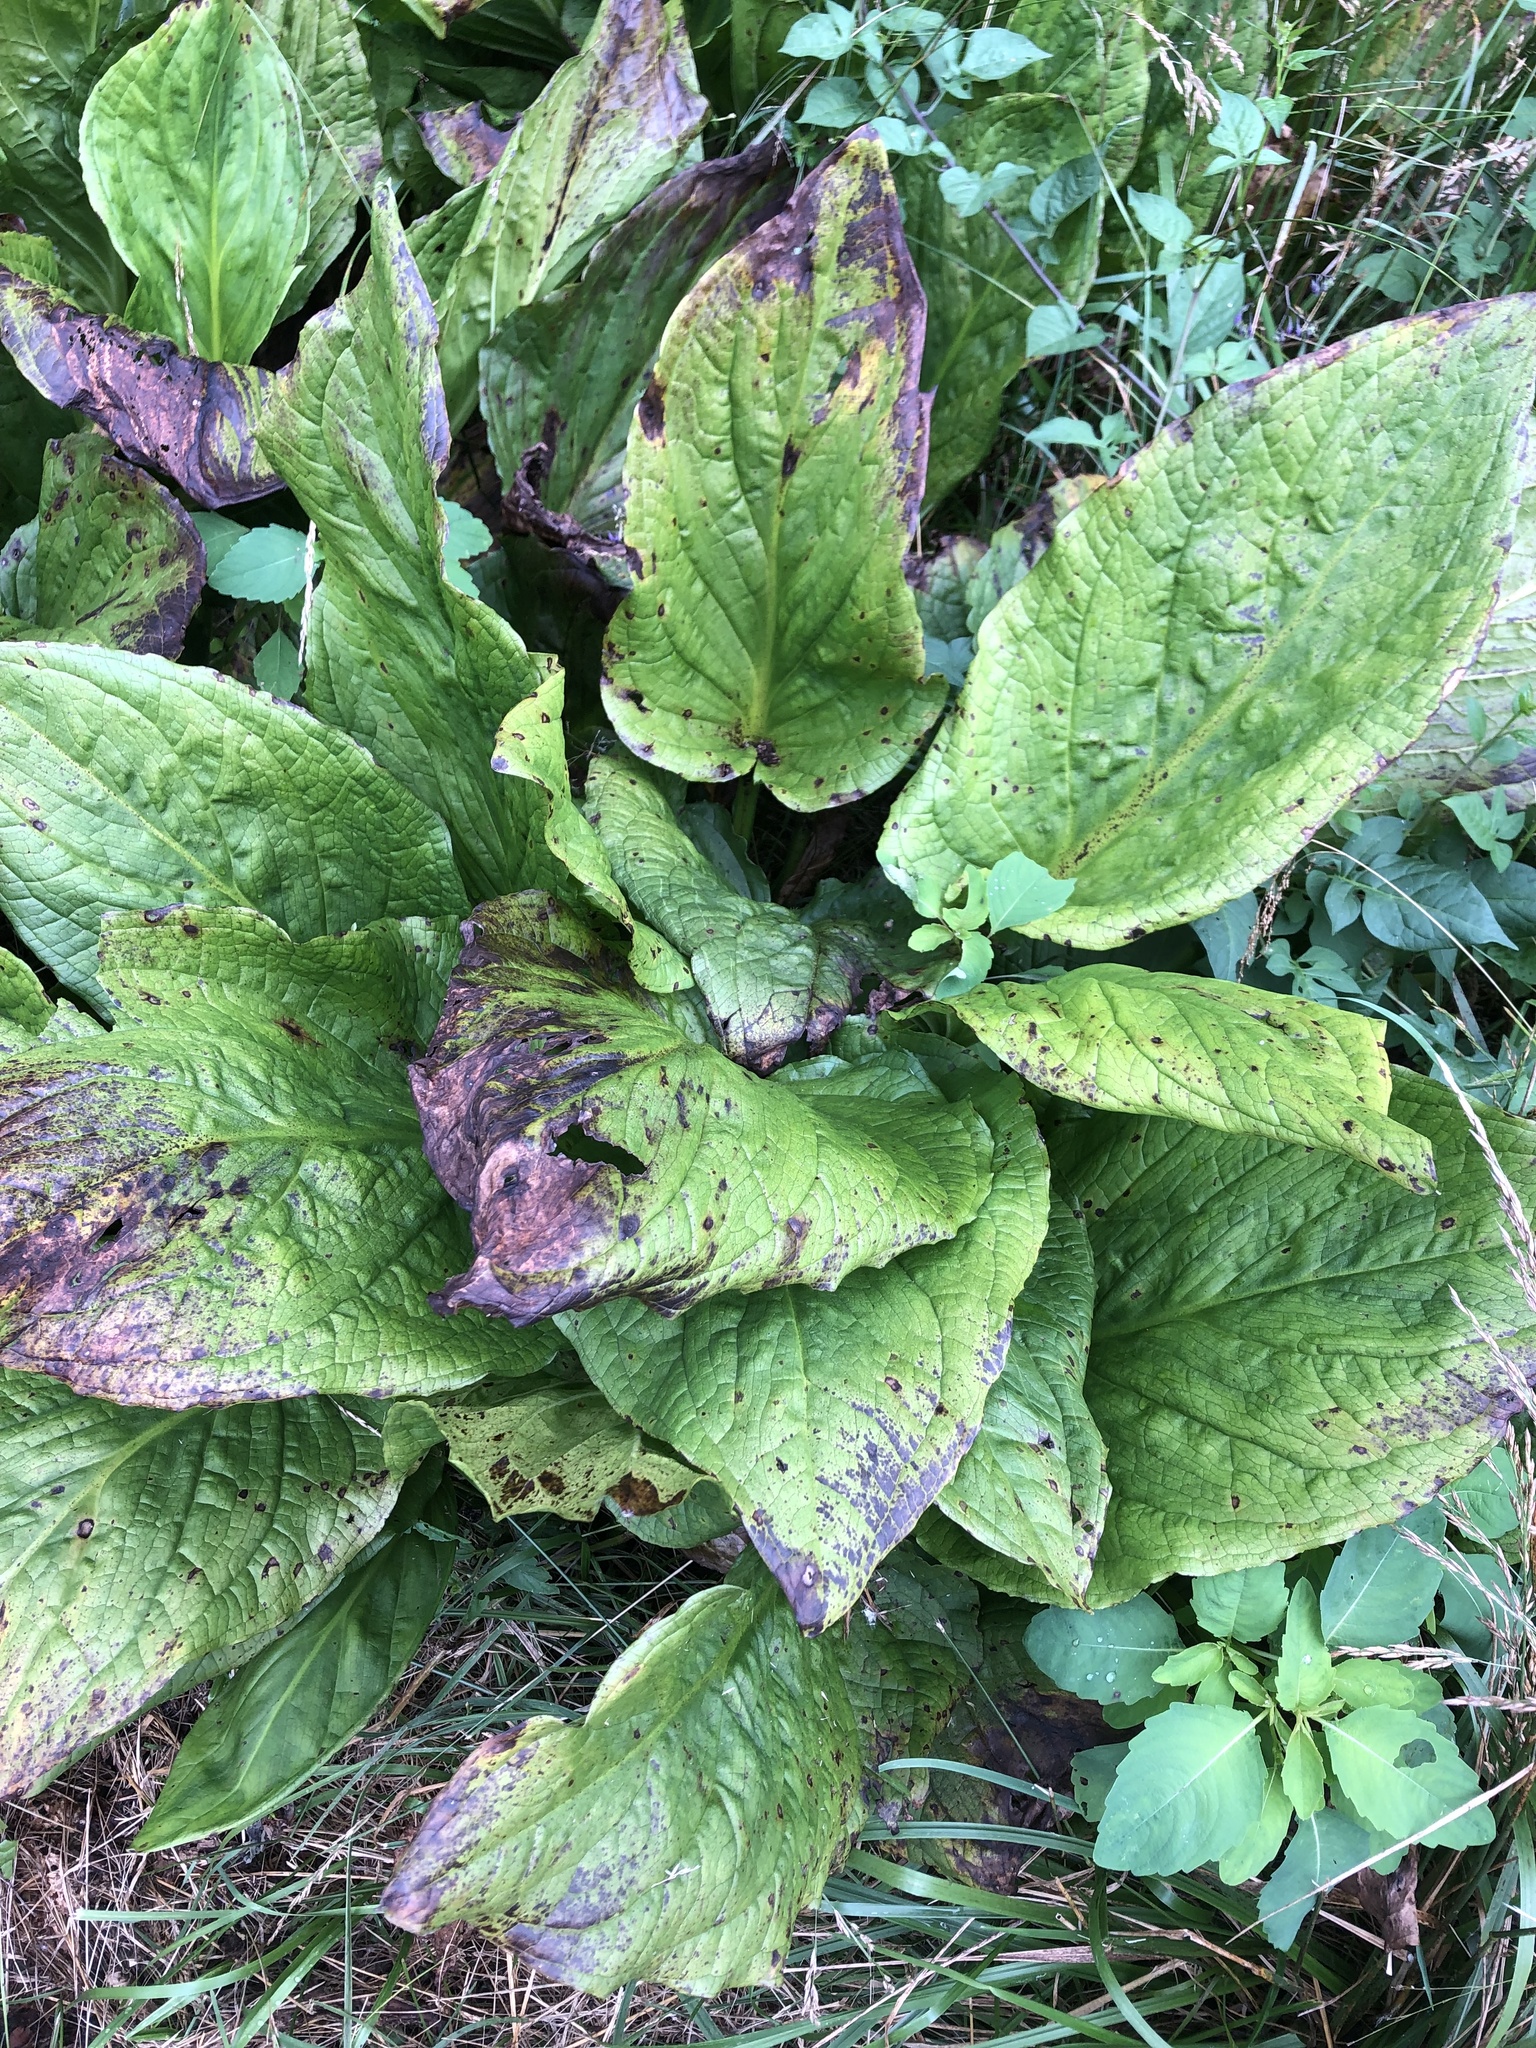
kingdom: Plantae
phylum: Tracheophyta
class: Liliopsida
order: Alismatales
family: Araceae
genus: Symplocarpus
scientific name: Symplocarpus foetidus
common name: Eastern skunk cabbage
